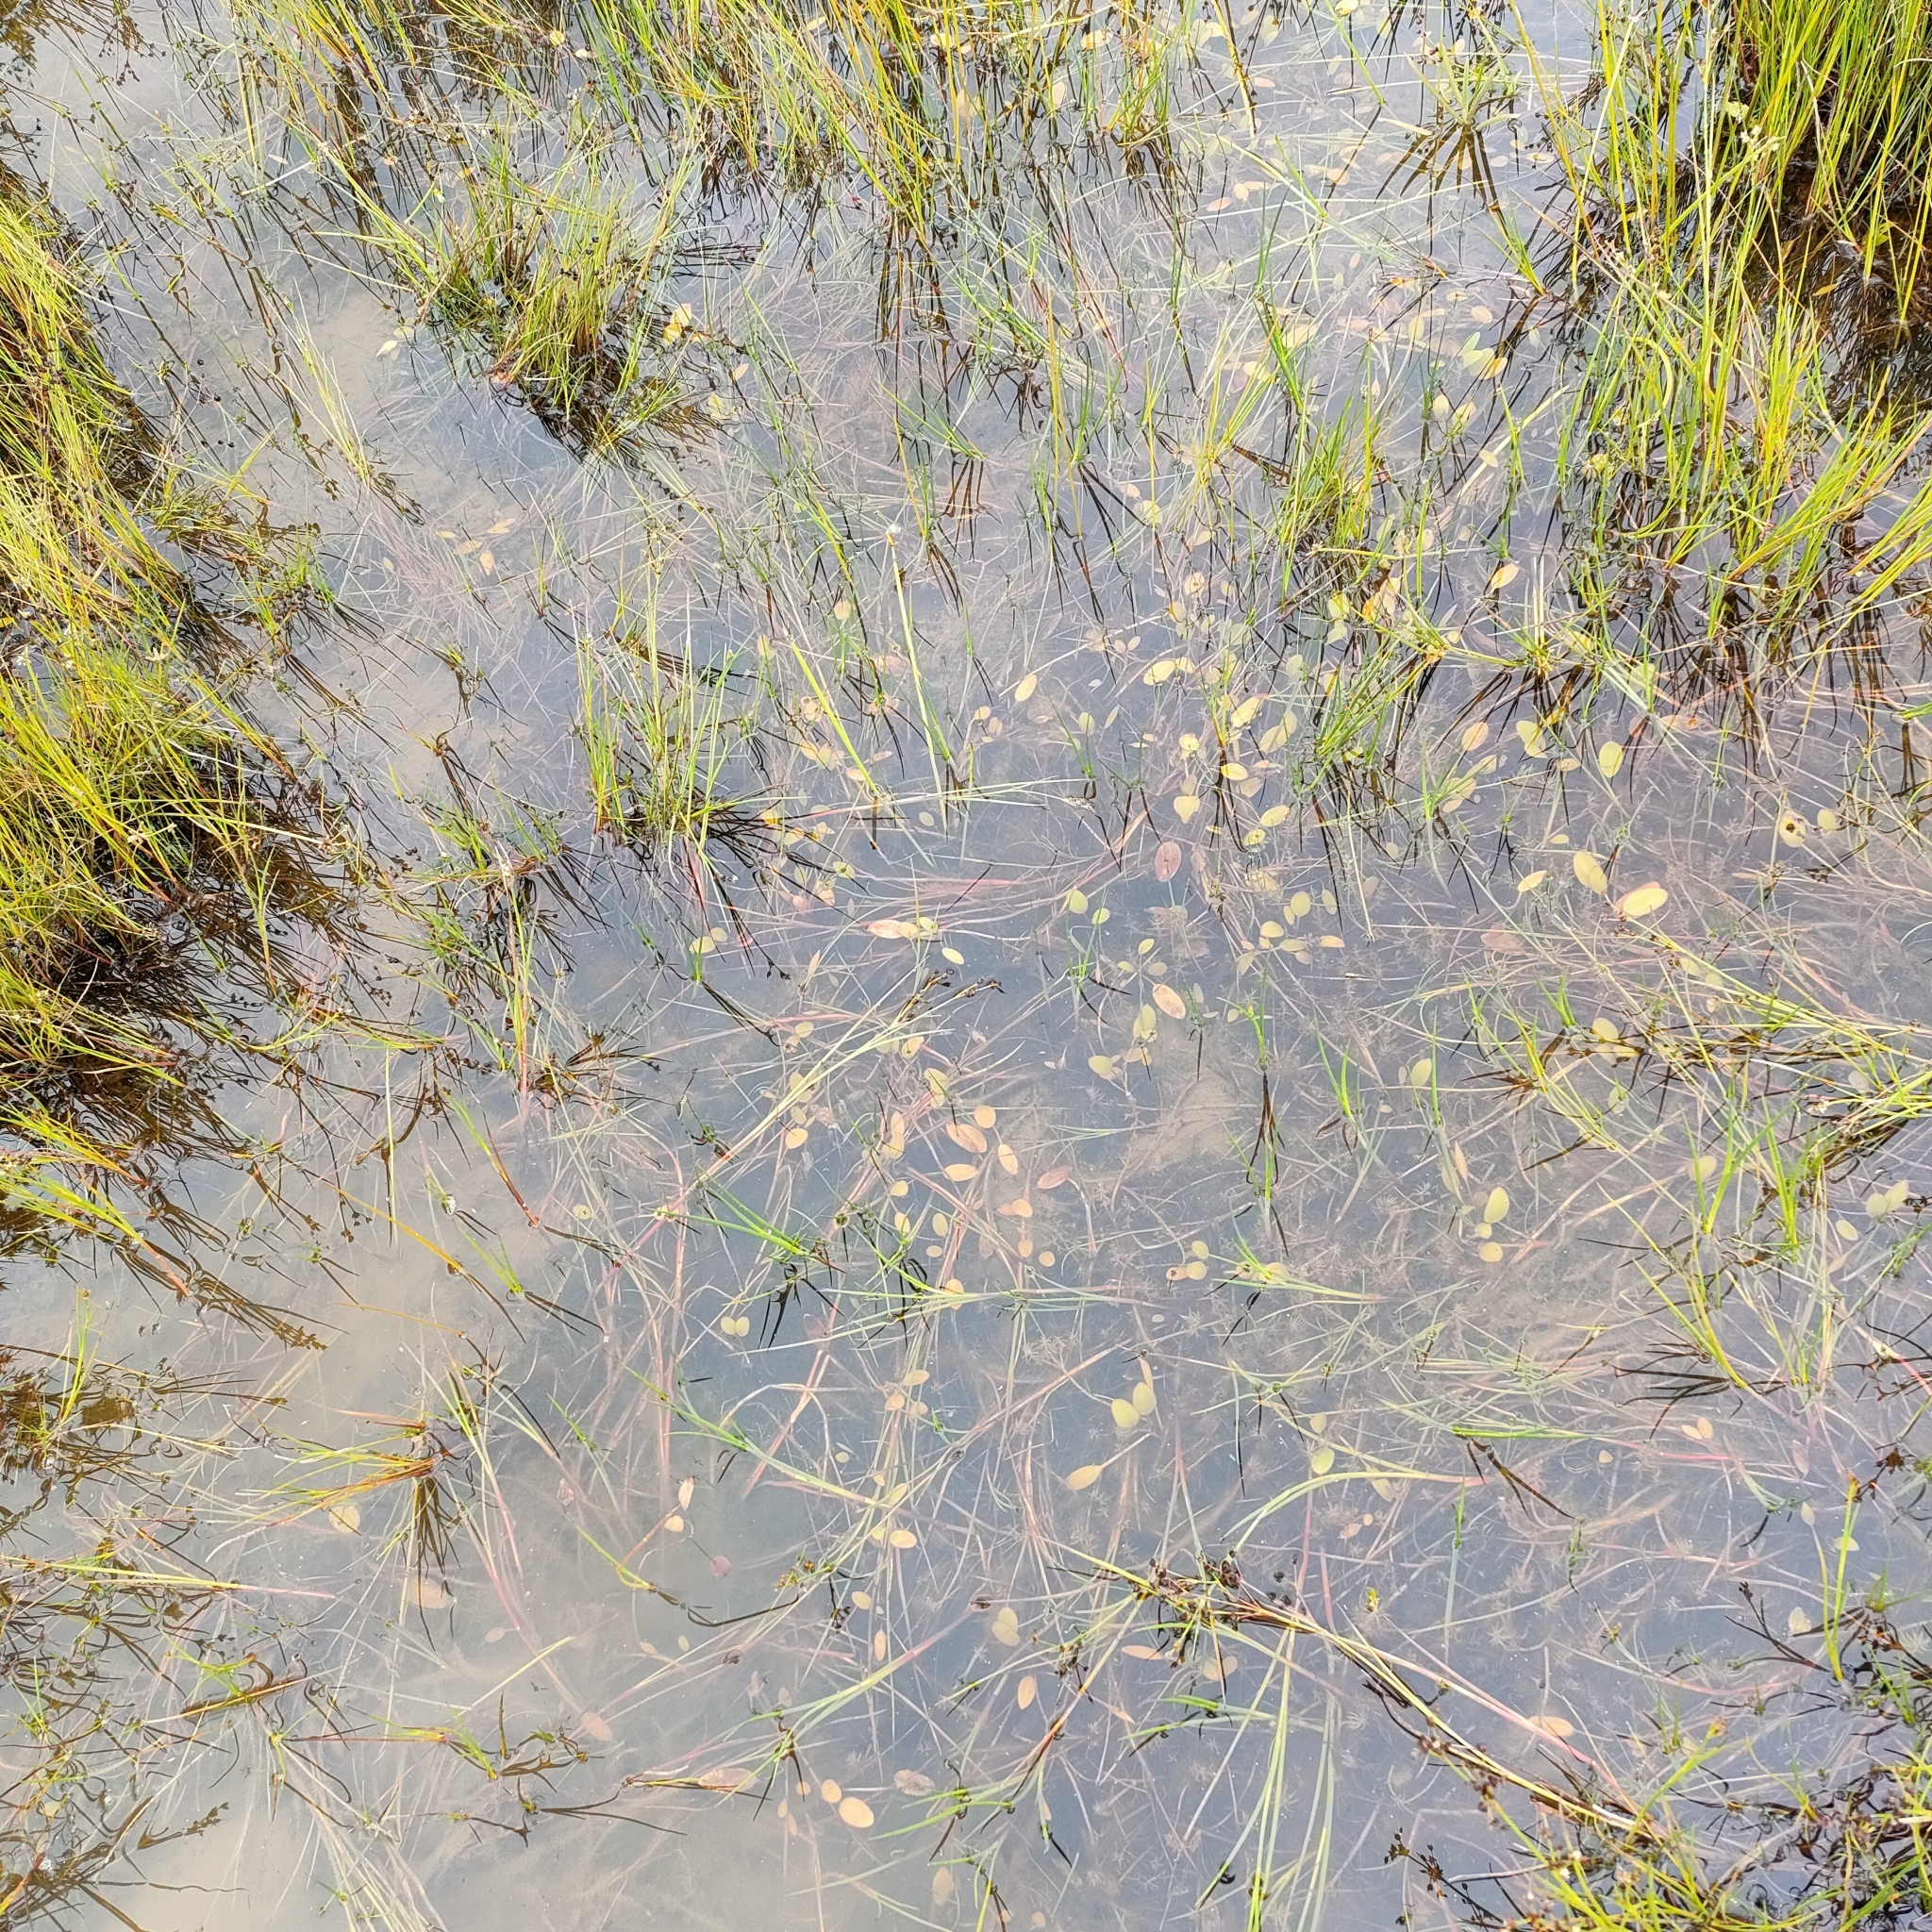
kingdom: Plantae
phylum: Tracheophyta
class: Liliopsida
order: Alismatales
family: Potamogetonaceae
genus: Potamogeton
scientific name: Potamogeton cheesemanii
